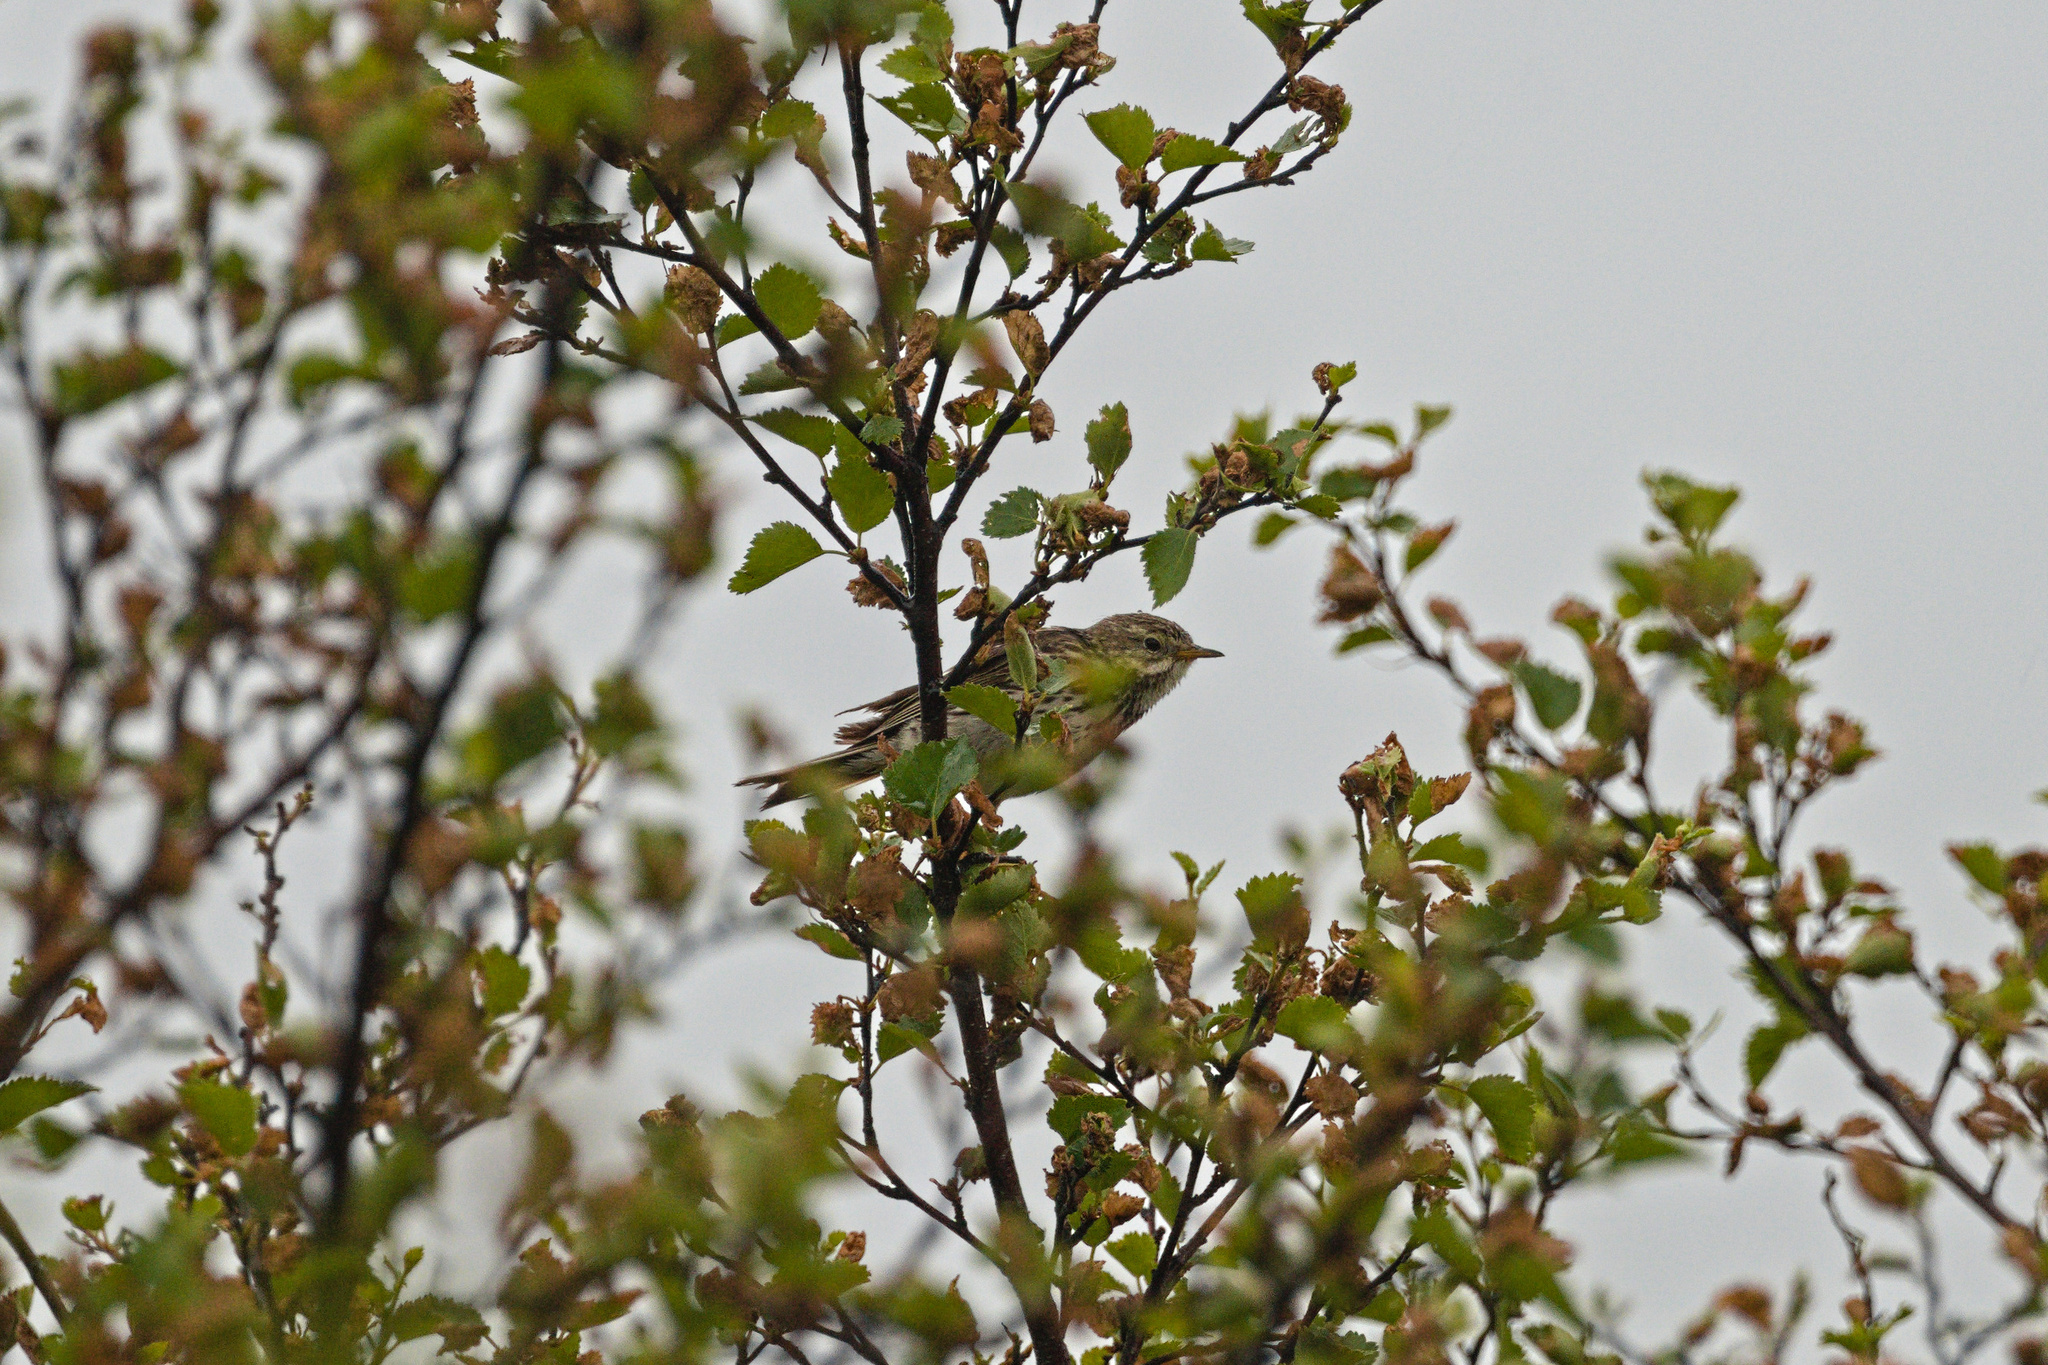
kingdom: Animalia
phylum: Chordata
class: Aves
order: Passeriformes
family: Motacillidae
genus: Anthus
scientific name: Anthus pratensis
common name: Meadow pipit
